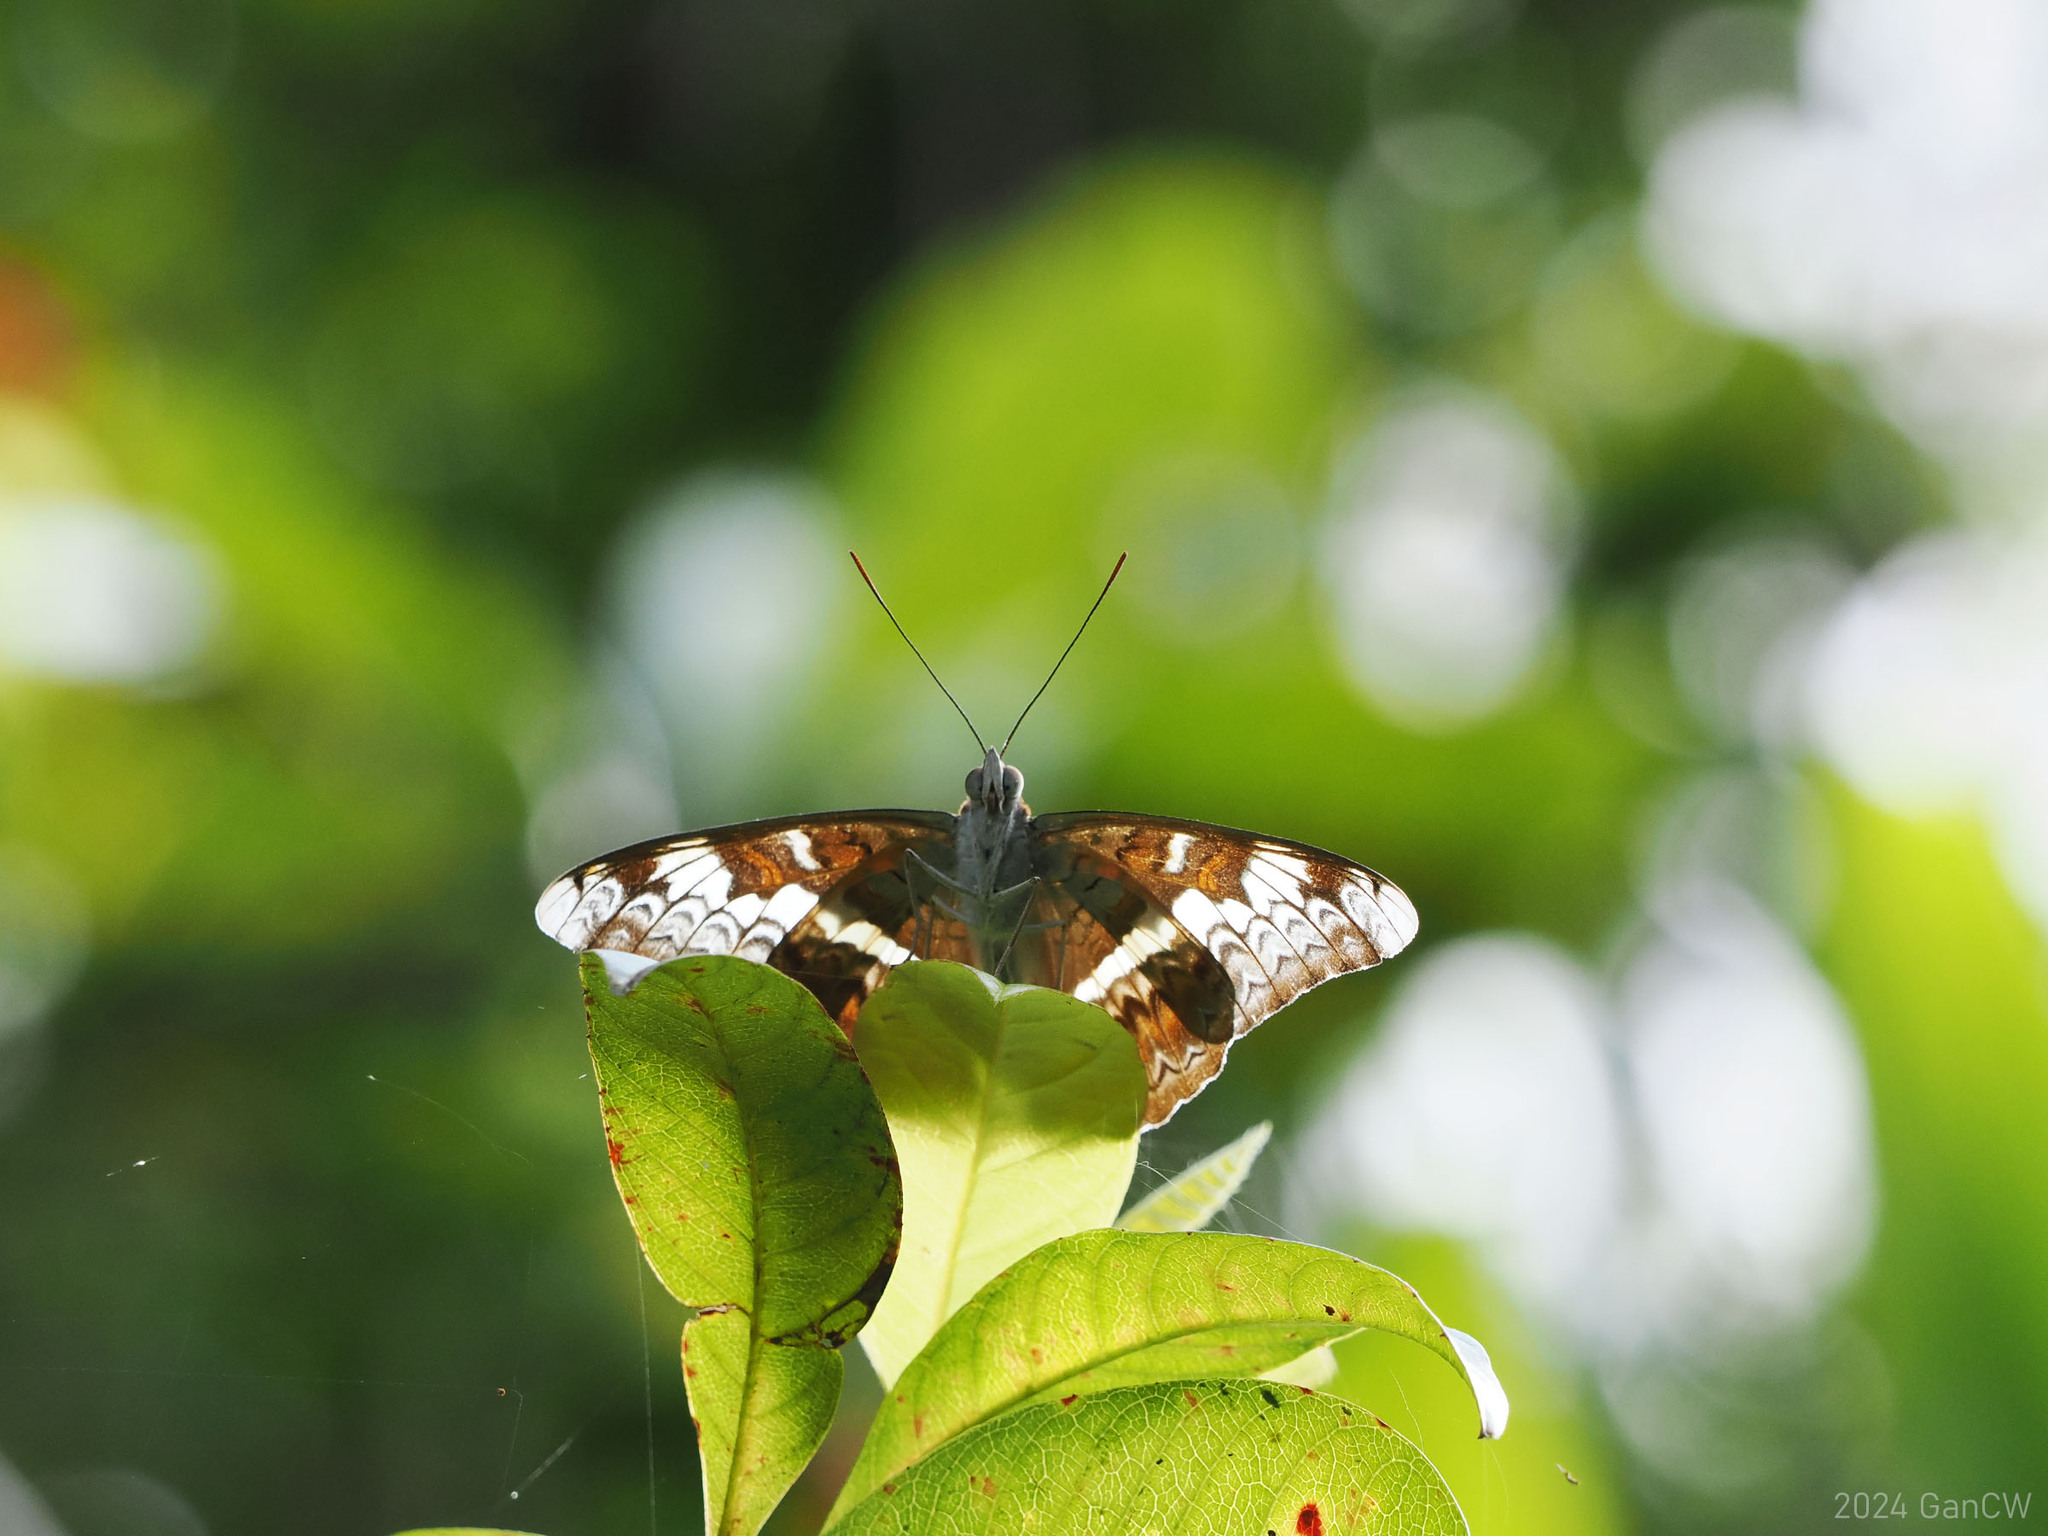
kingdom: Animalia
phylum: Arthropoda
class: Insecta
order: Lepidoptera
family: Nymphalidae
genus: Lebadea
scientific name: Lebadea martha
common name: Knight
